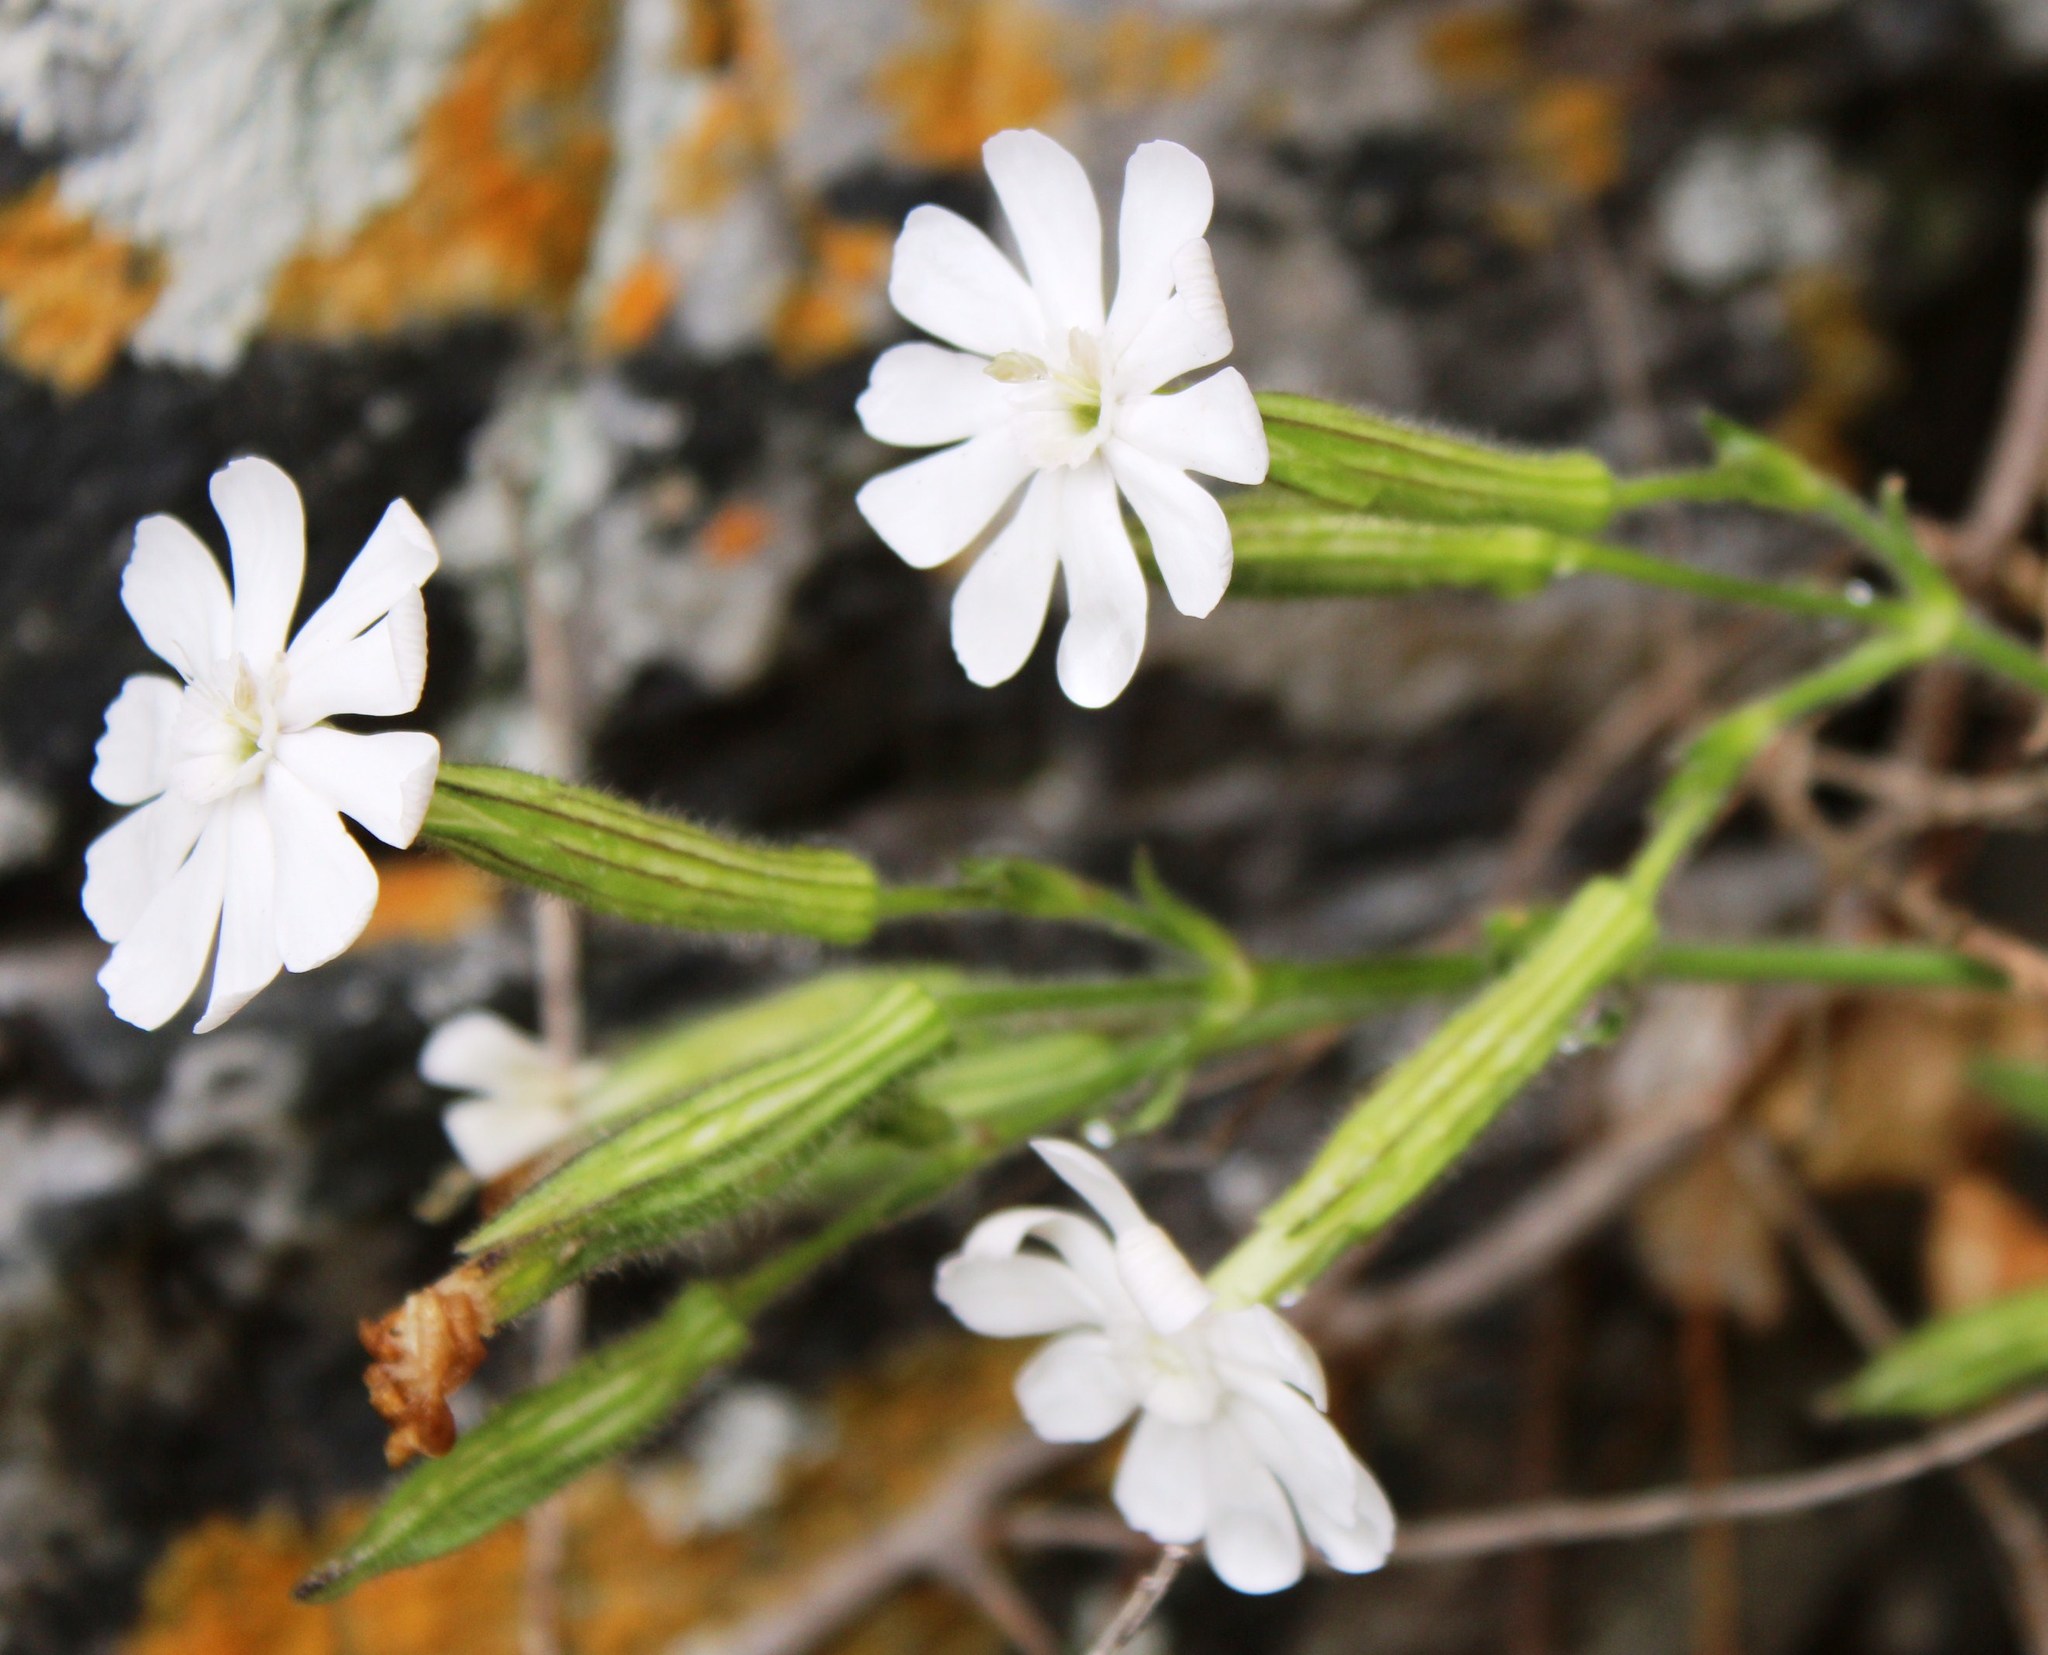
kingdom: Plantae
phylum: Tracheophyta
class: Magnoliopsida
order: Caryophyllales
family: Caryophyllaceae
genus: Silene
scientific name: Silene undulata
